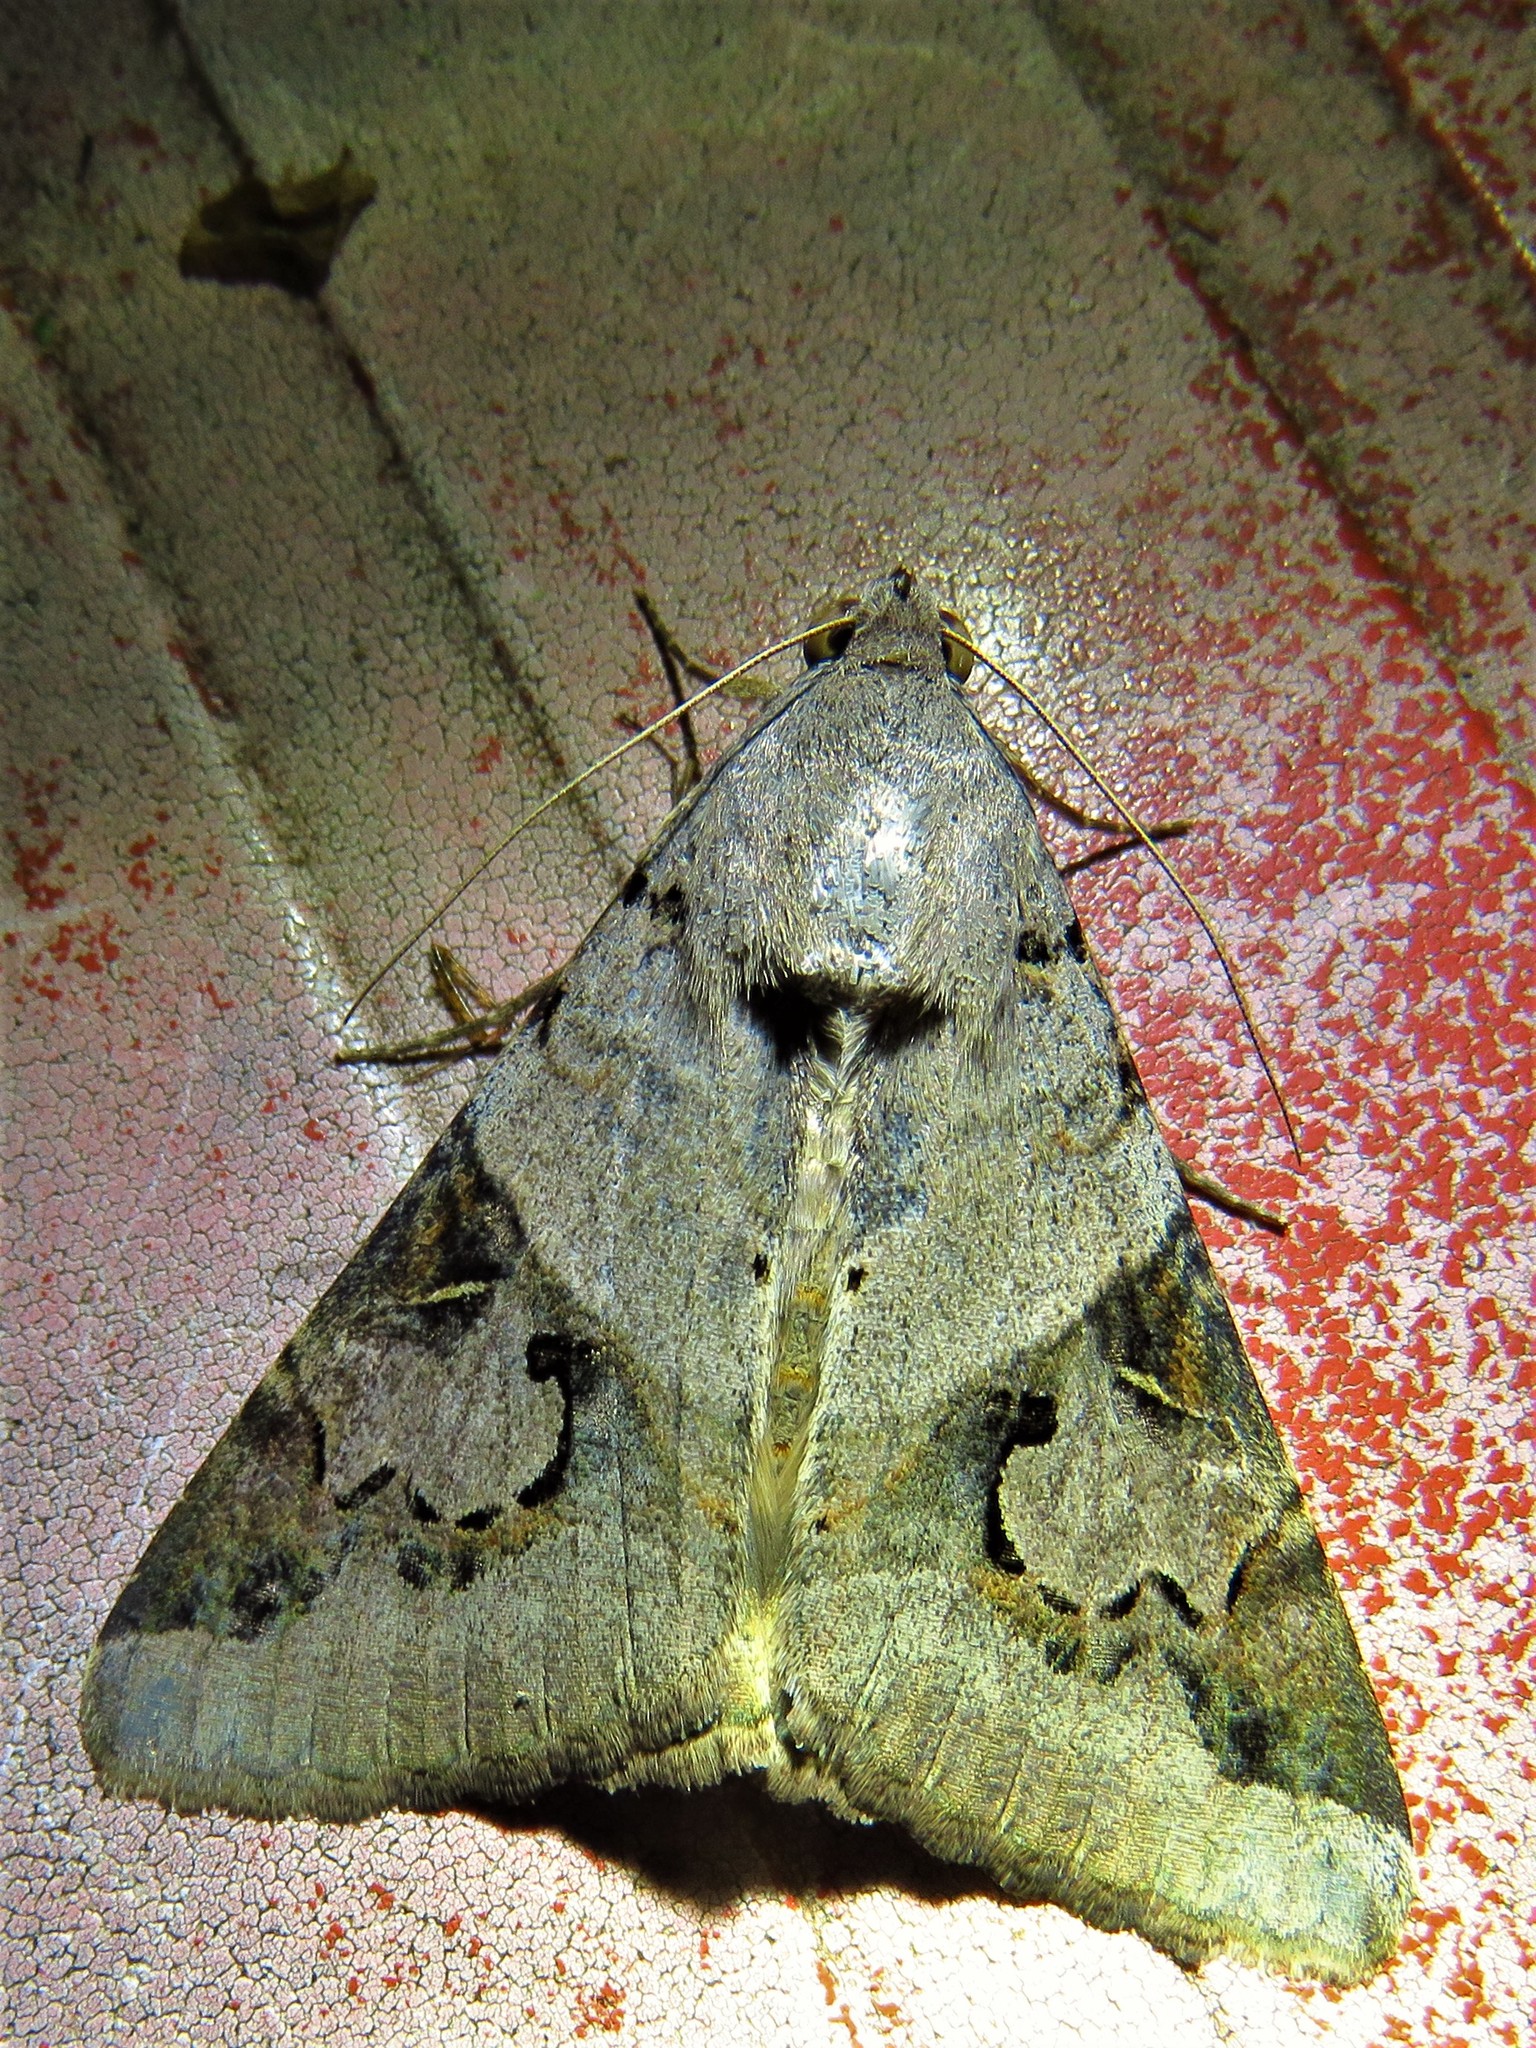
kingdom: Animalia
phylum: Arthropoda
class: Insecta
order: Lepidoptera
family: Erebidae
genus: Melipotis
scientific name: Melipotis indomita
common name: Moth
